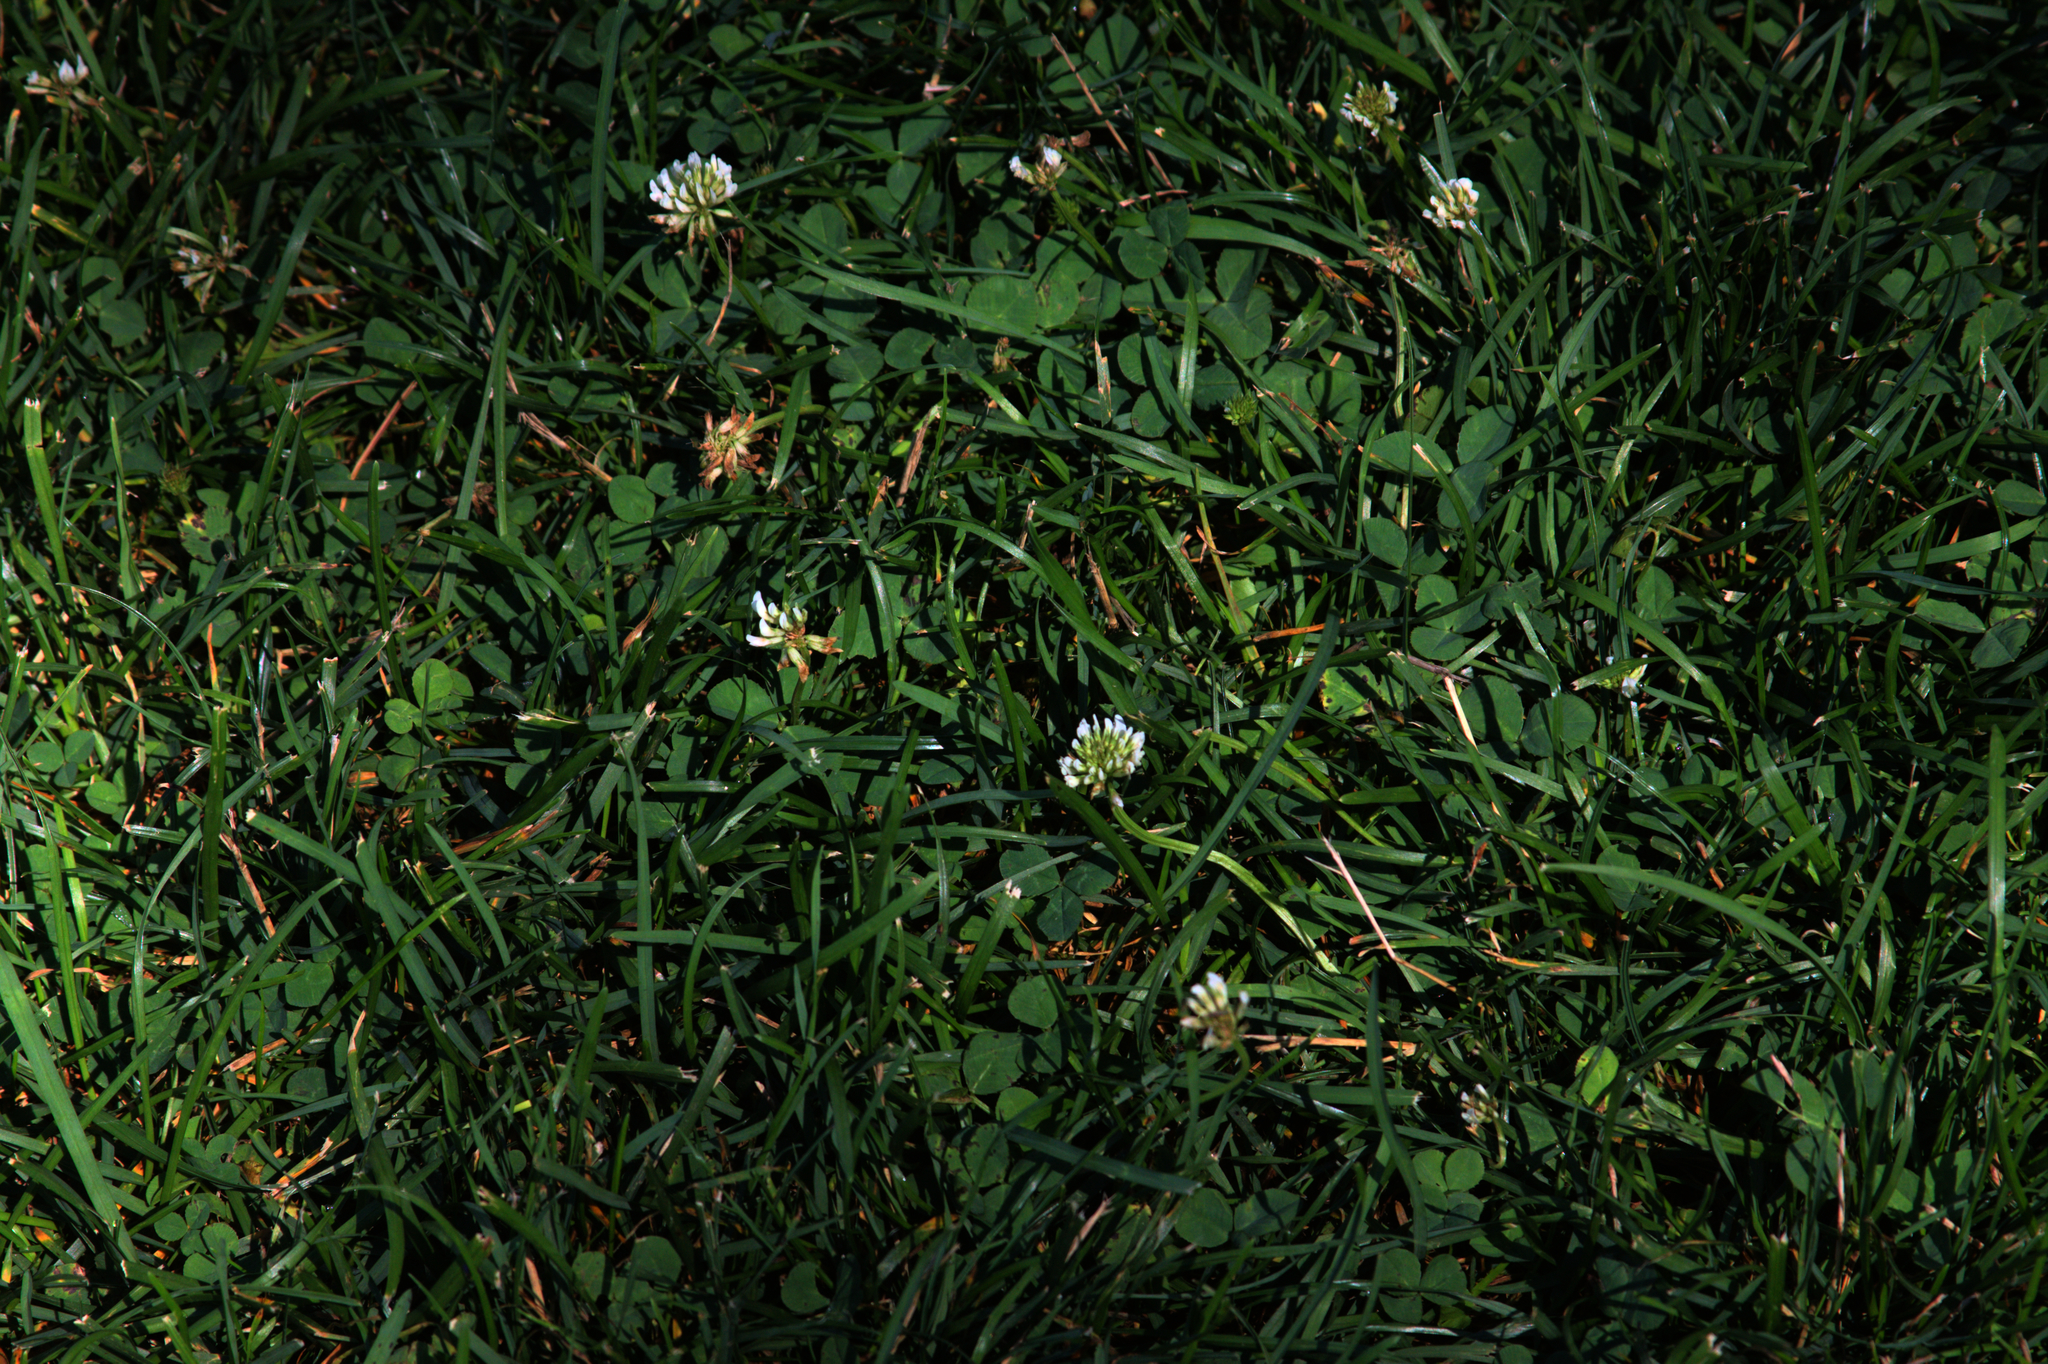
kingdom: Plantae
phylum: Tracheophyta
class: Magnoliopsida
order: Fabales
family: Fabaceae
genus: Trifolium
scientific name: Trifolium repens
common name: White clover
